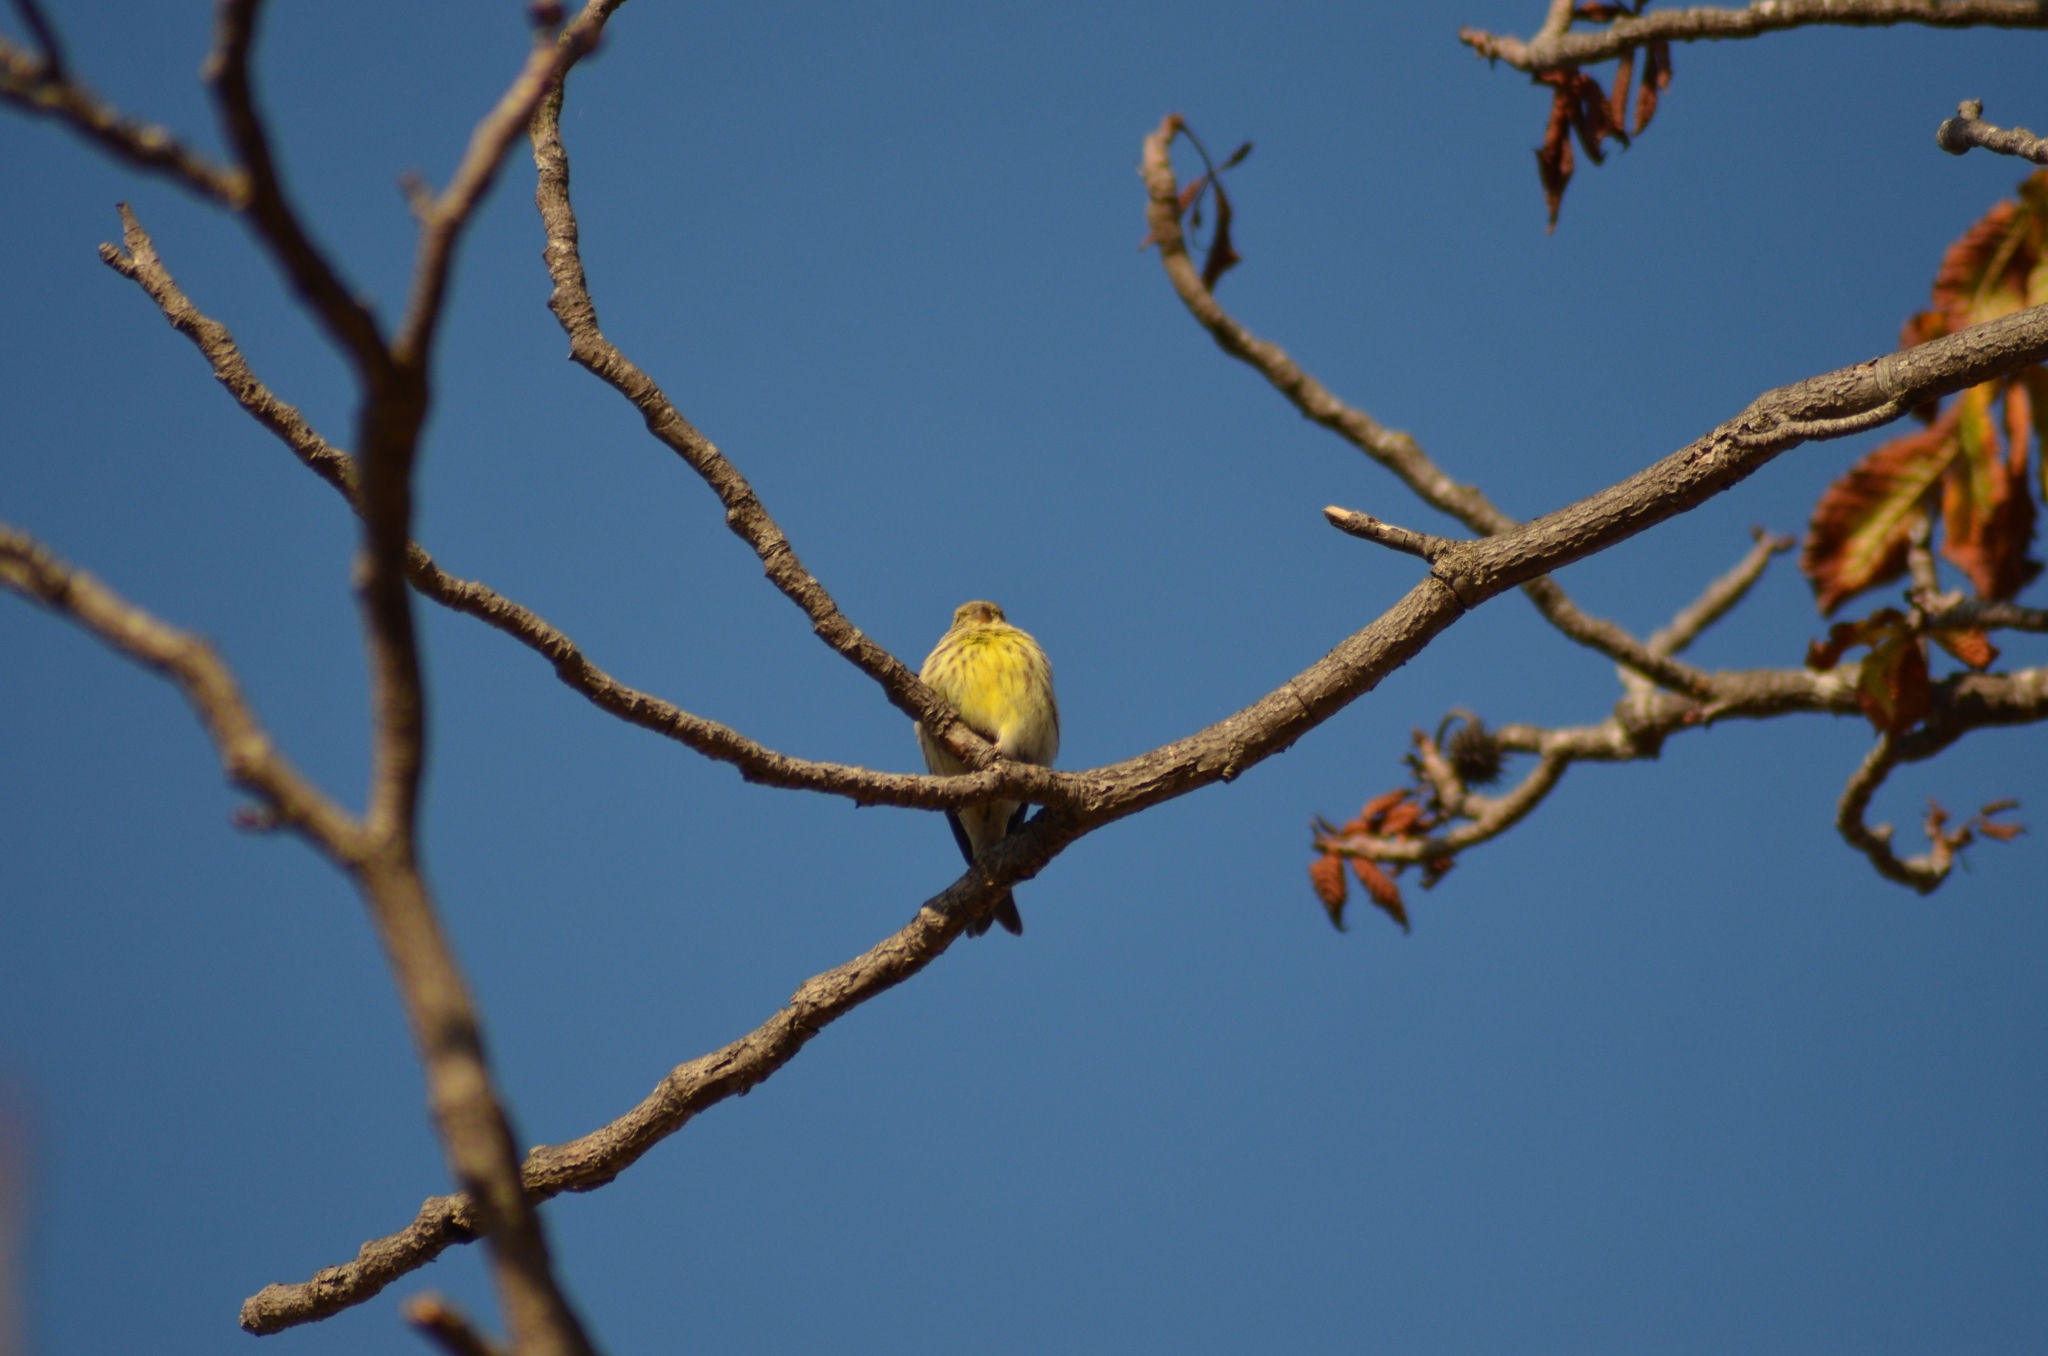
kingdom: Animalia
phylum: Chordata
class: Aves
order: Passeriformes
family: Fringillidae
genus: Serinus
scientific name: Serinus serinus
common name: European serin
